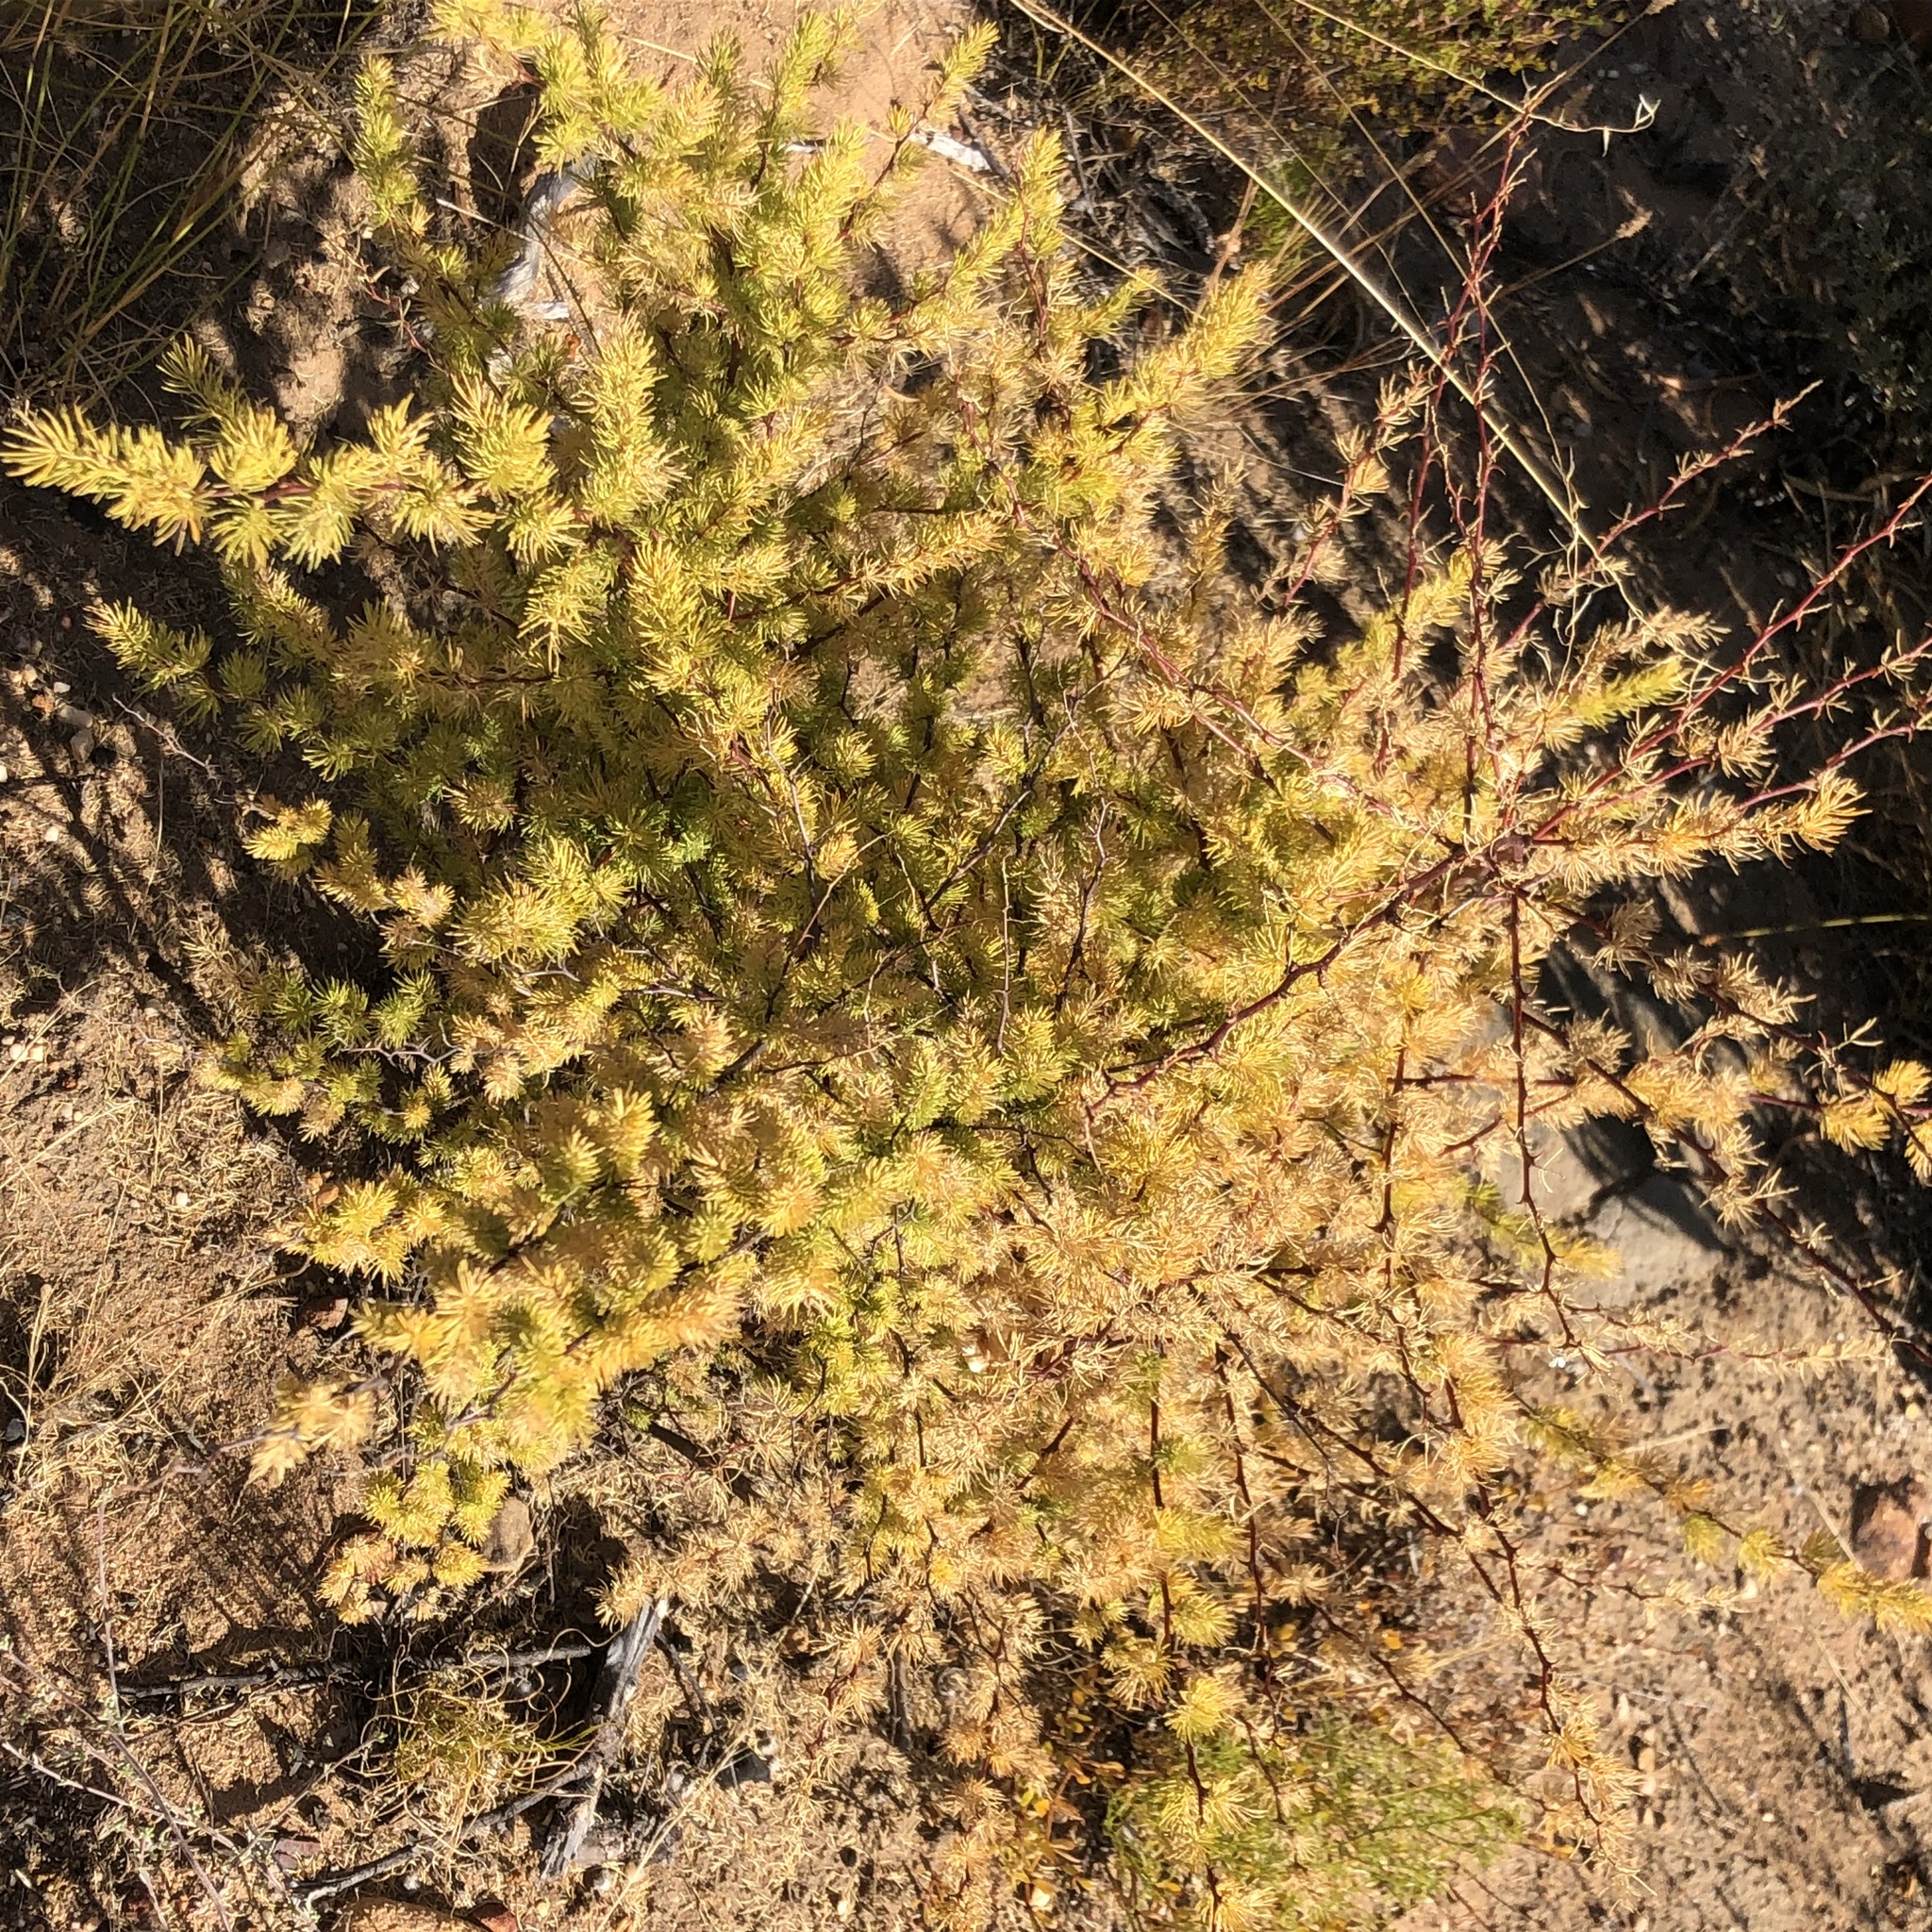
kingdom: Plantae
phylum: Tracheophyta
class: Liliopsida
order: Asparagales
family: Asparagaceae
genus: Asparagus
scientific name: Asparagus rubicundus
